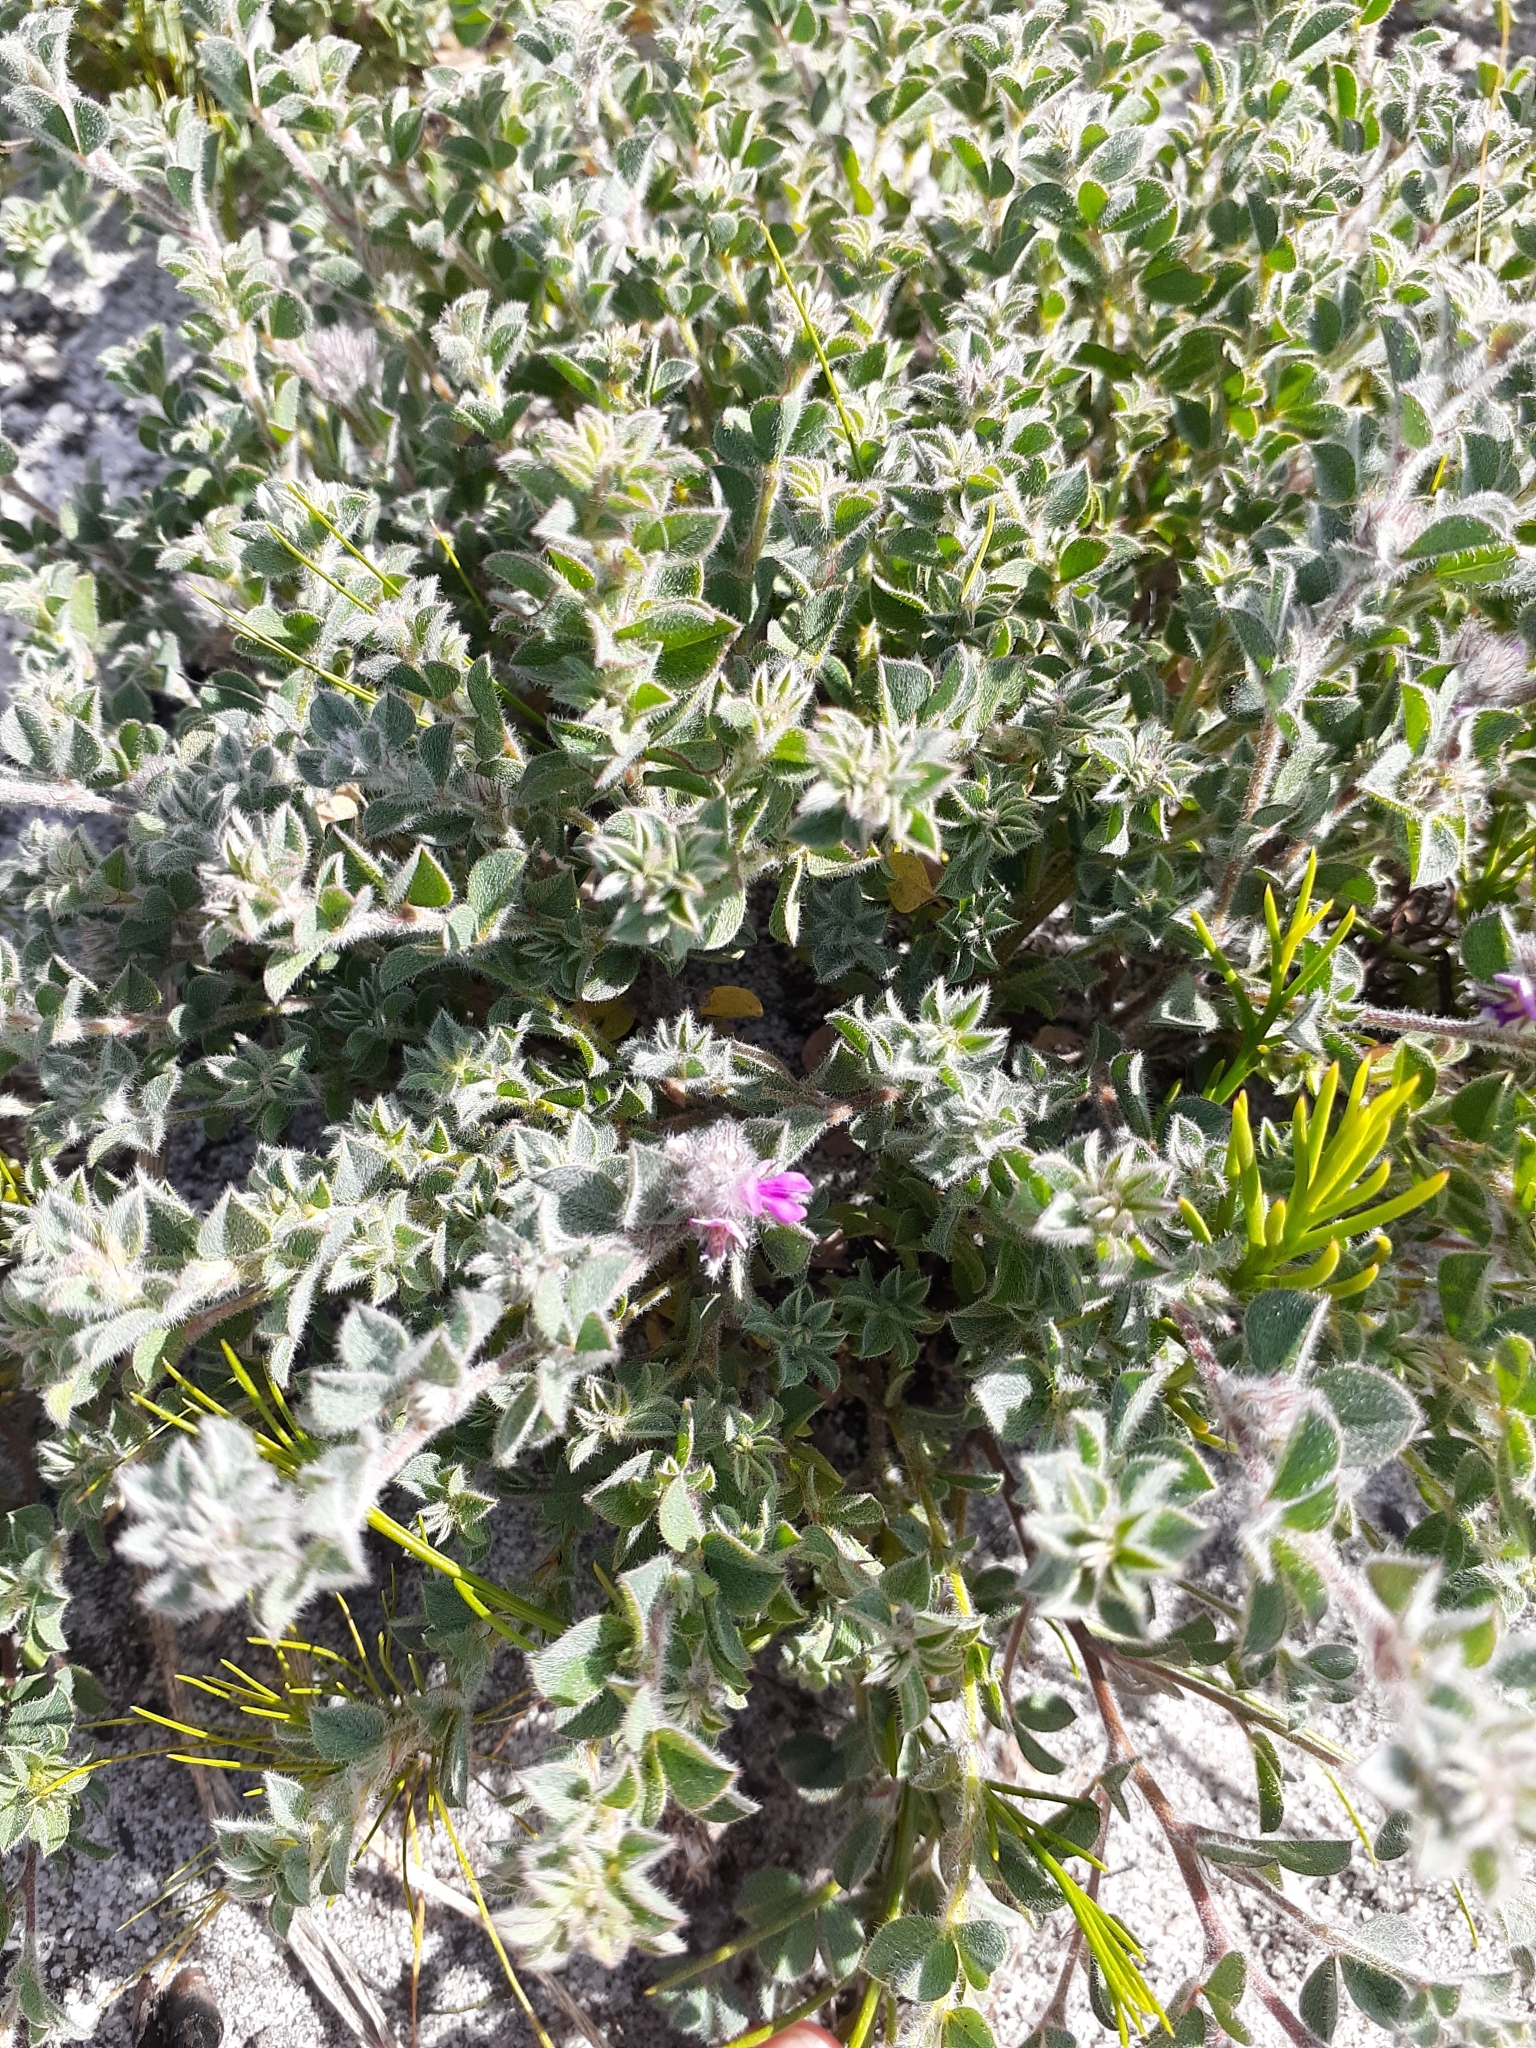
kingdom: Plantae
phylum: Tracheophyta
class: Magnoliopsida
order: Fabales
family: Fabaceae
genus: Indigofera
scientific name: Indigofera glomerata
